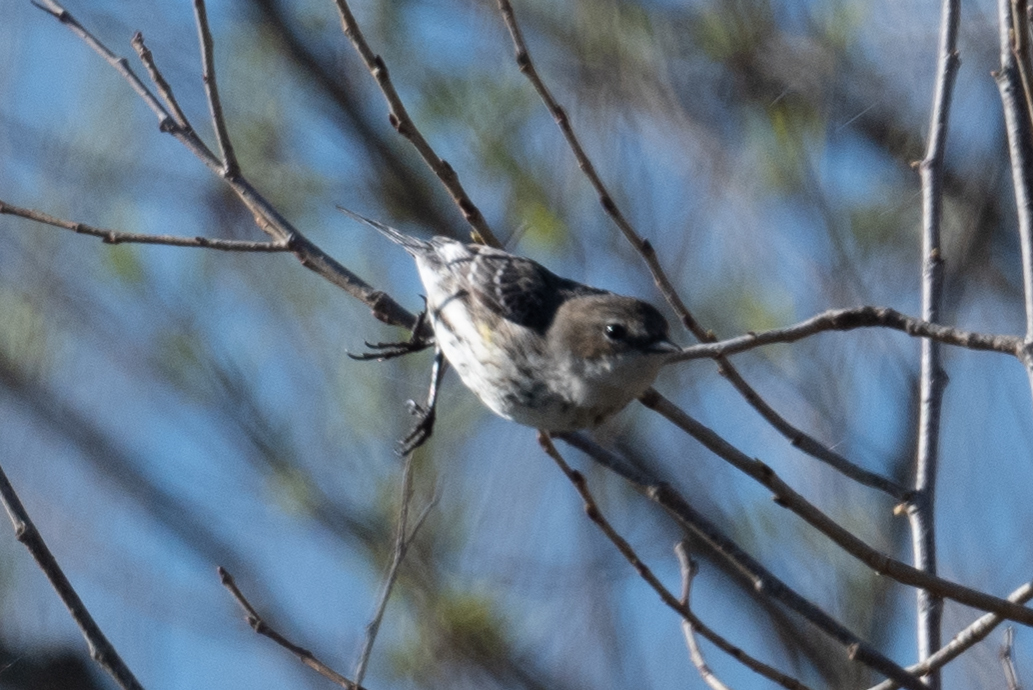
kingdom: Animalia
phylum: Chordata
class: Aves
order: Passeriformes
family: Parulidae
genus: Setophaga
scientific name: Setophaga coronata
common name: Myrtle warbler
